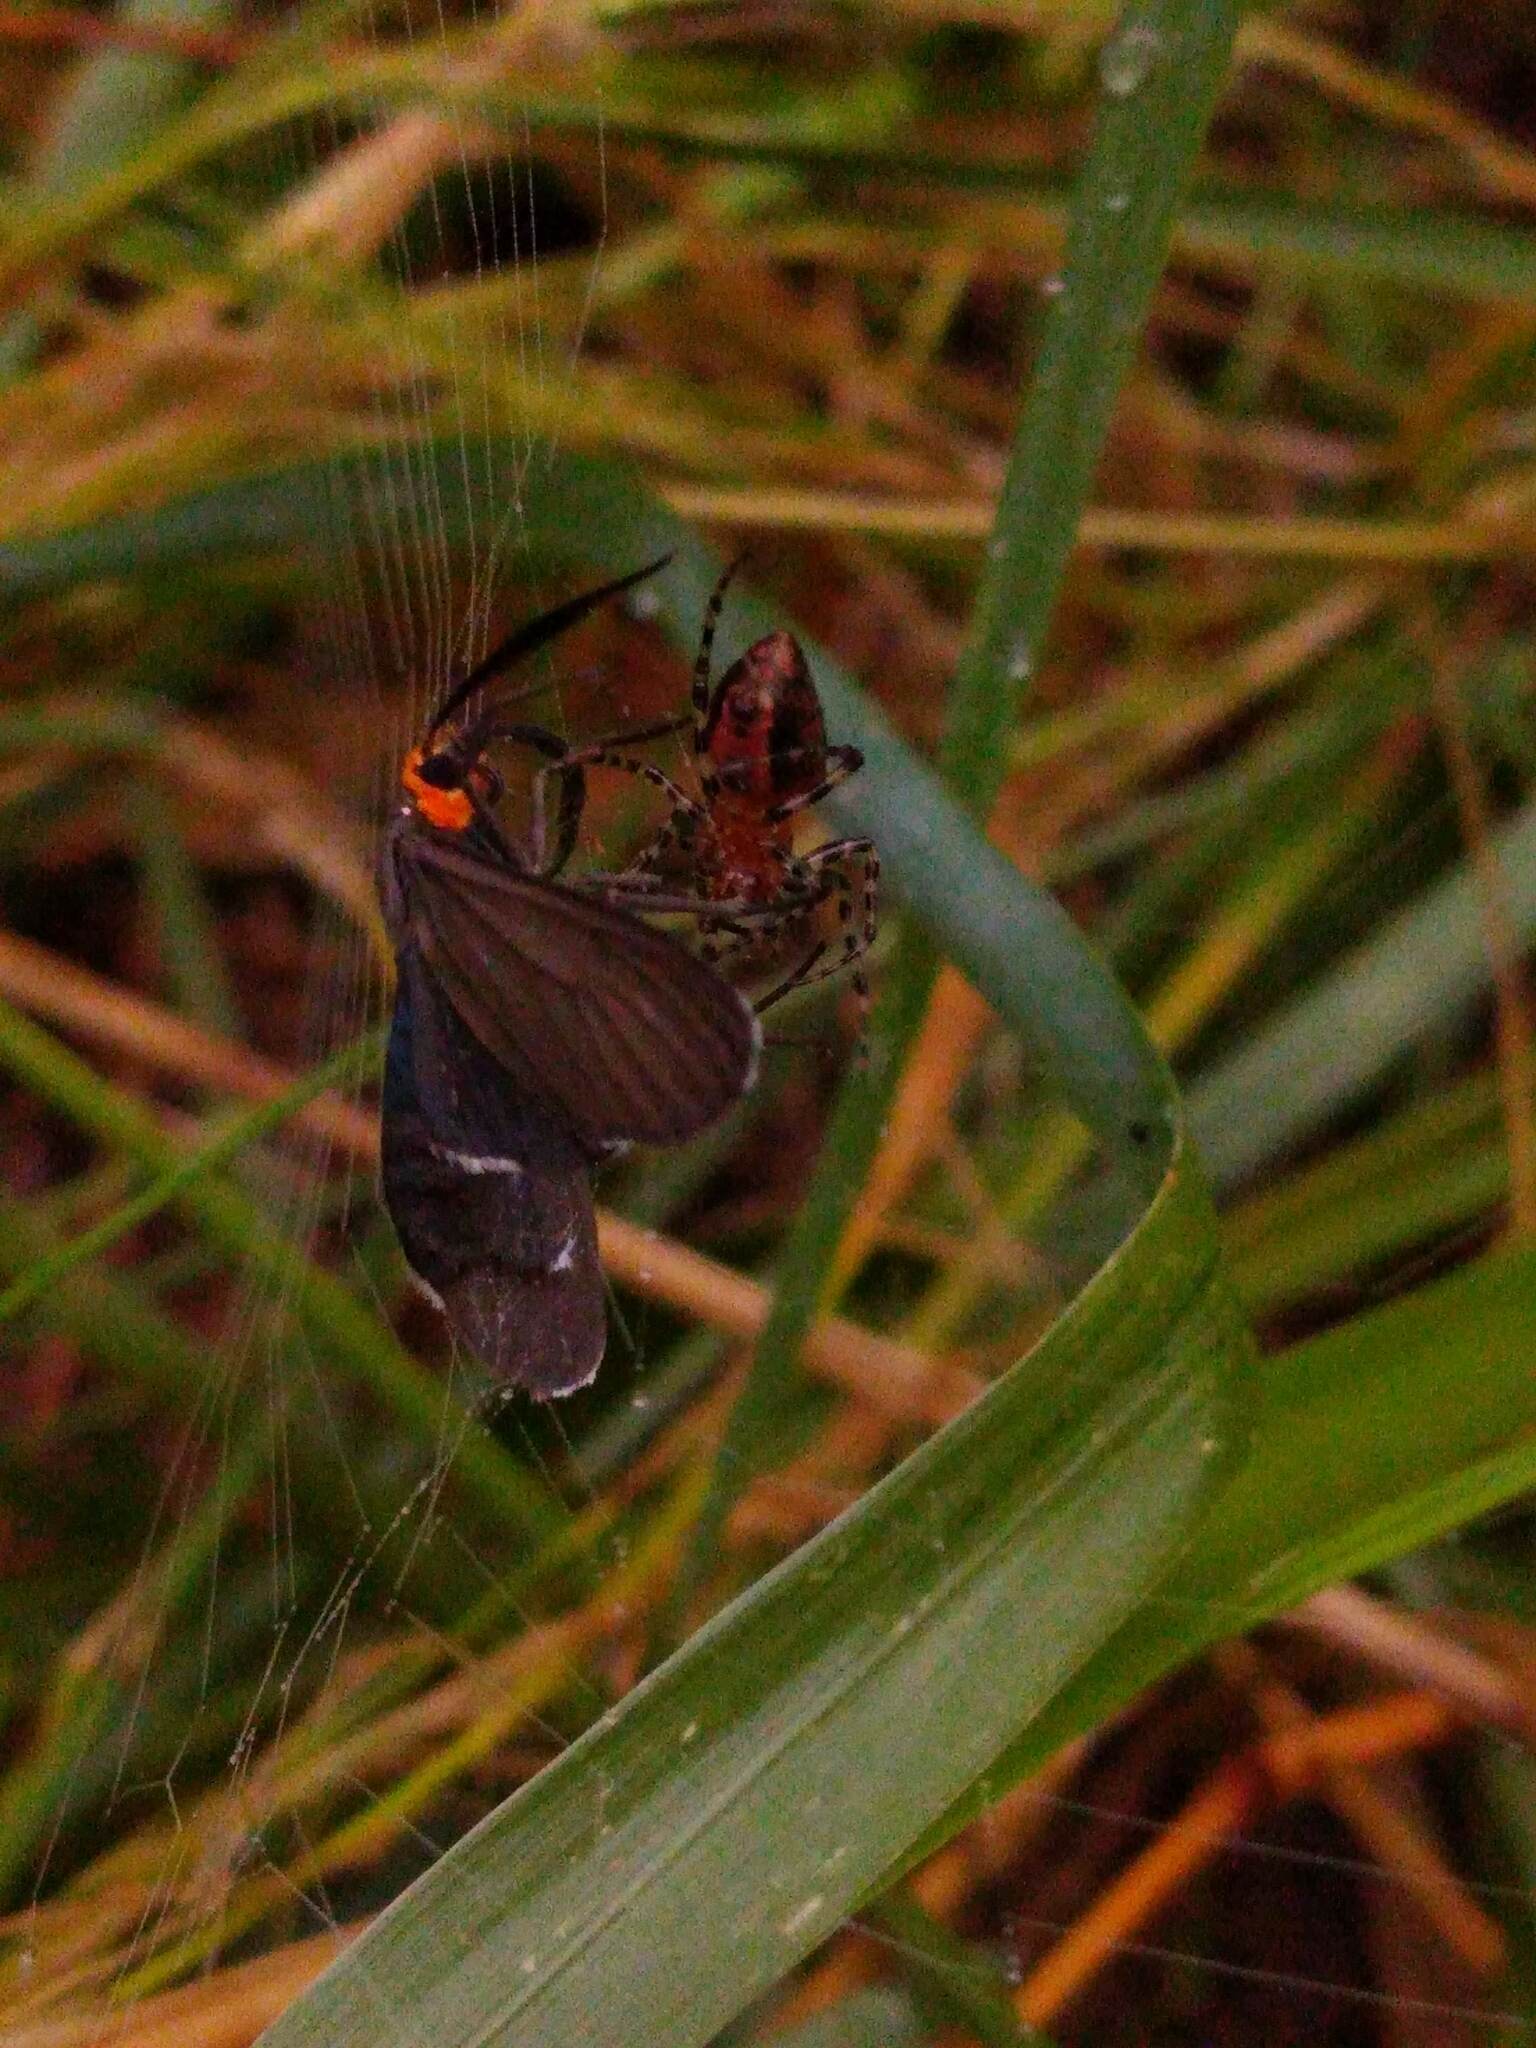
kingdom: Animalia
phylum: Arthropoda
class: Insecta
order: Lepidoptera
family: Erebidae
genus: Ctenucha
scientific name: Ctenucha rubriceps
